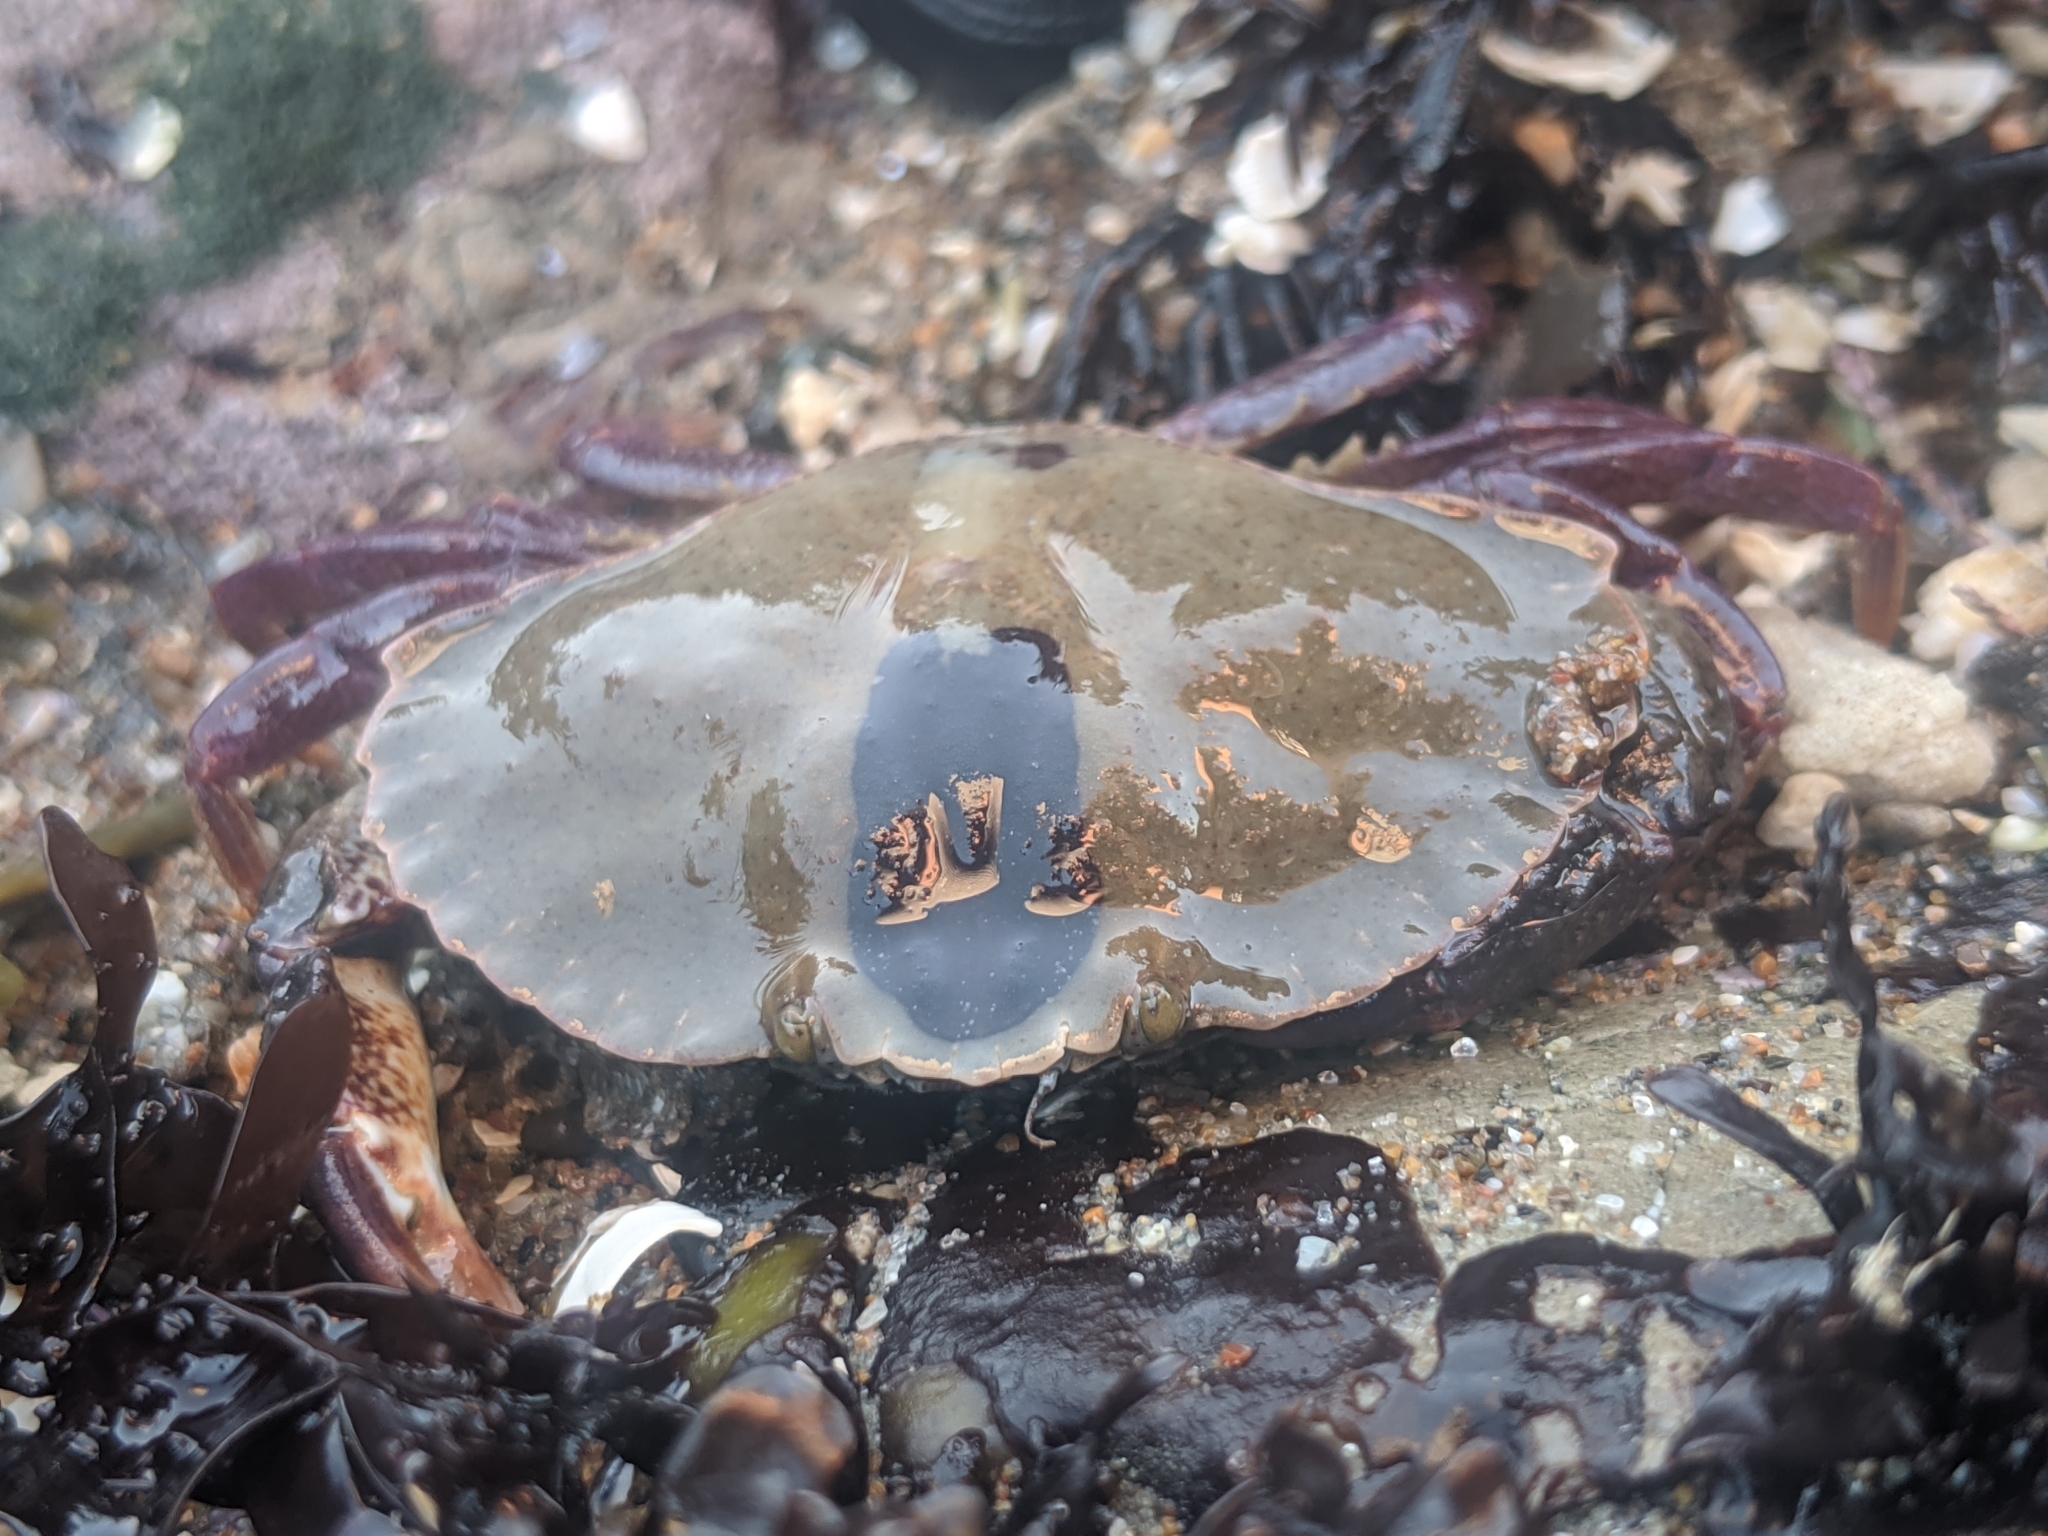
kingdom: Animalia
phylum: Arthropoda
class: Malacostraca
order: Decapoda
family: Cancridae
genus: Cancer
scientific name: Cancer productus
